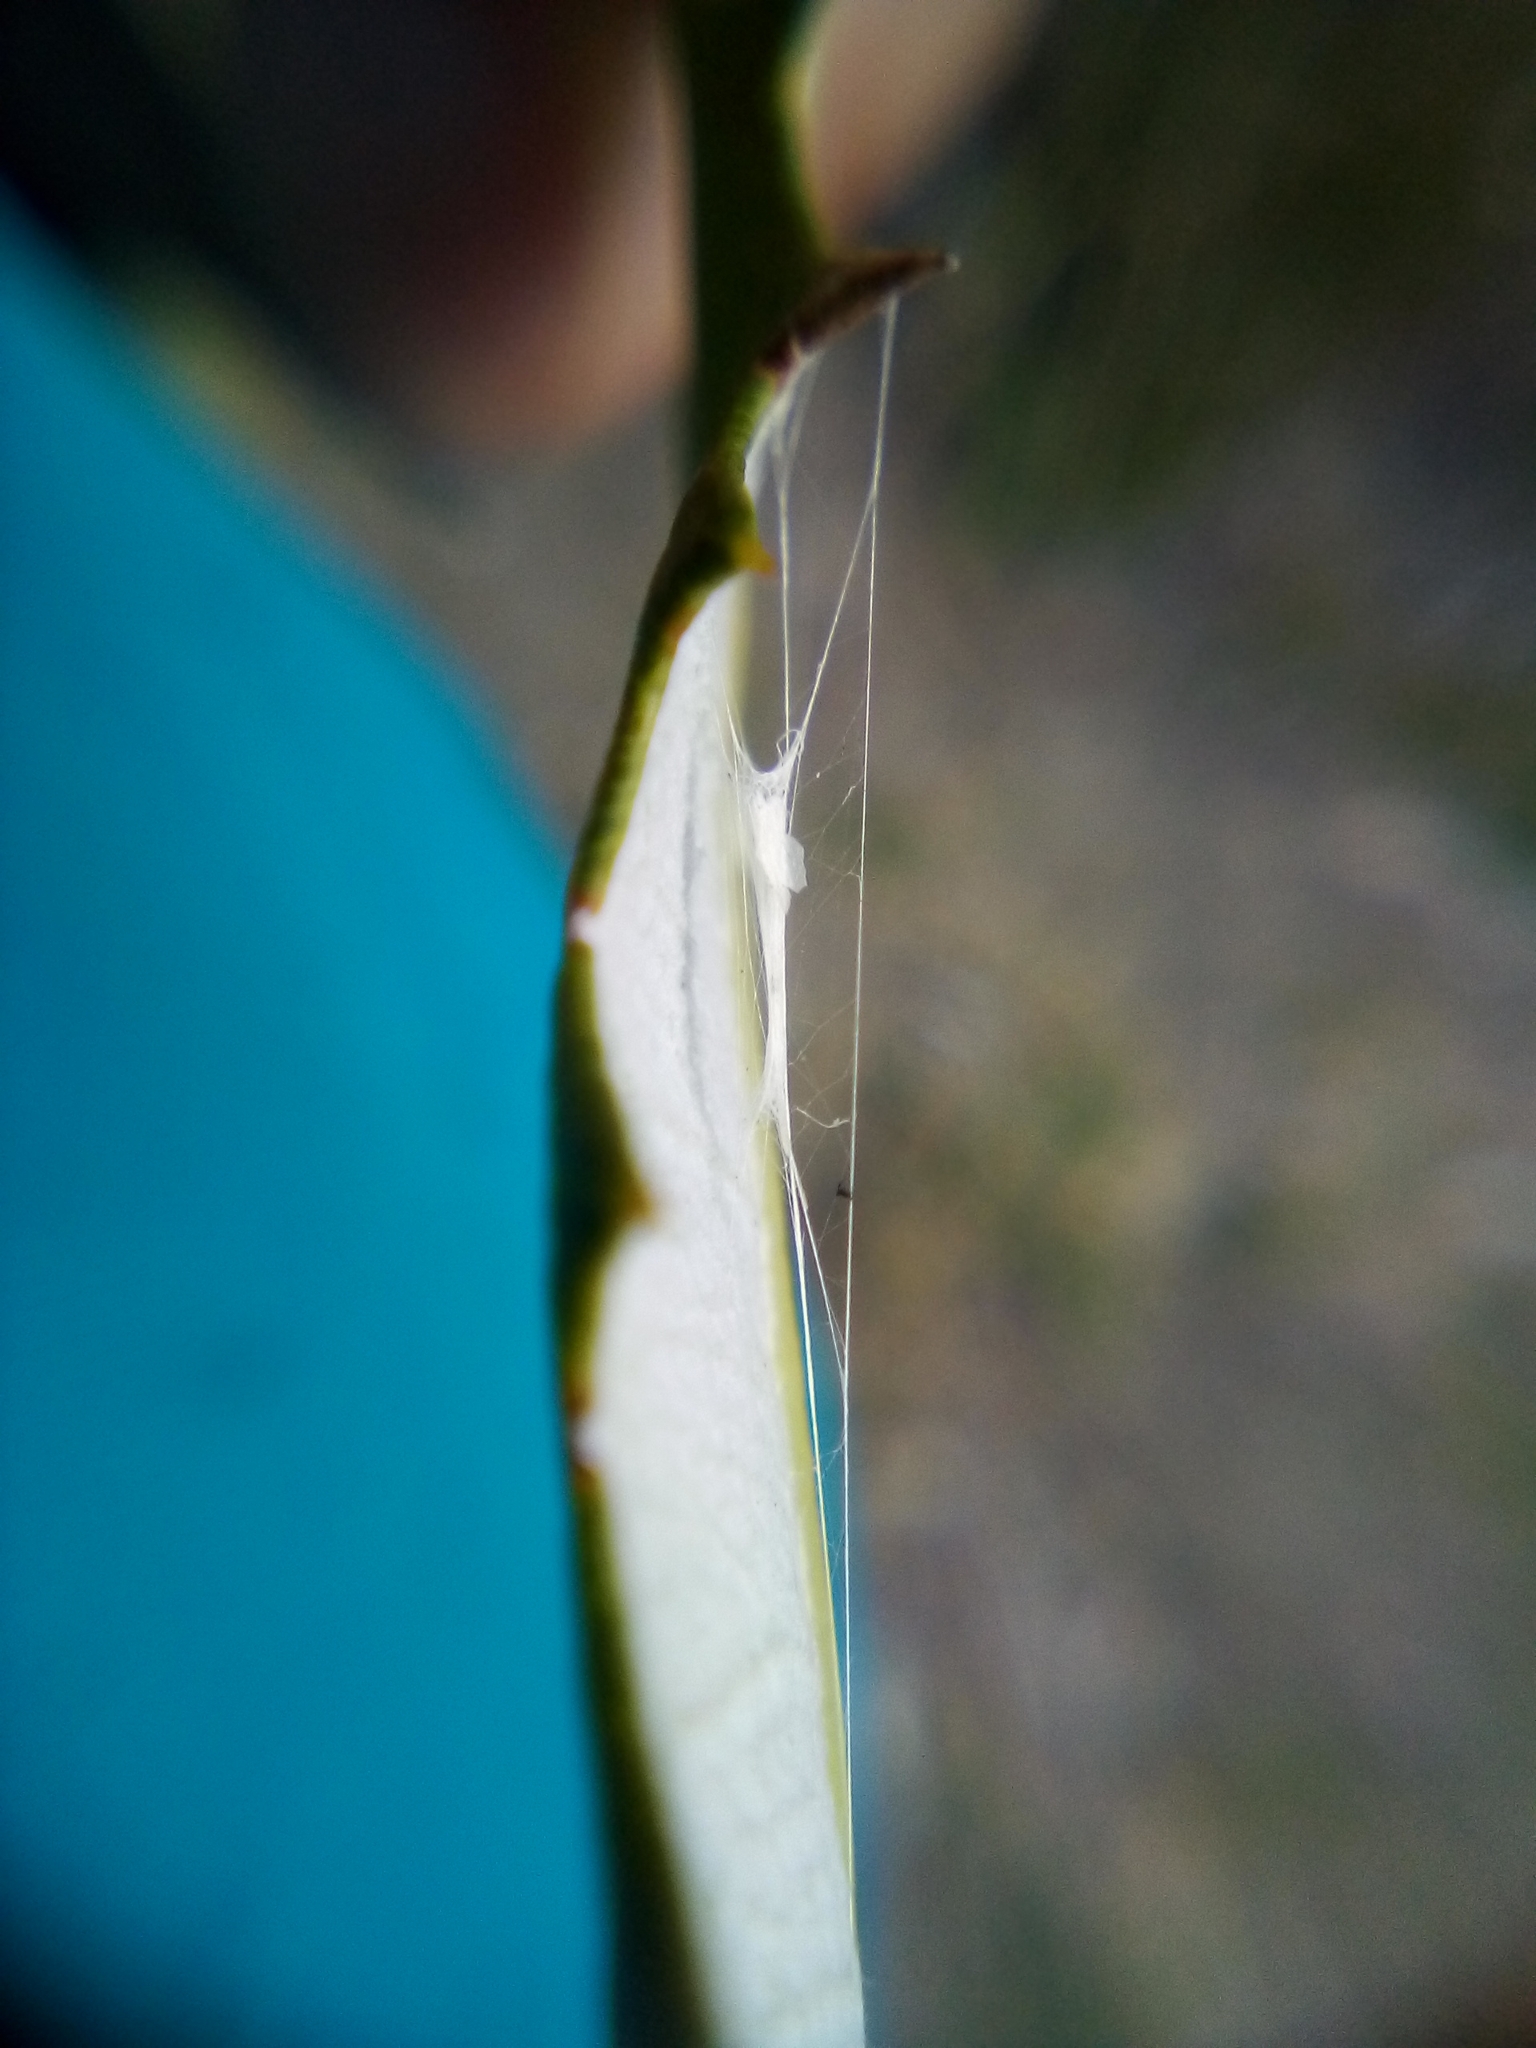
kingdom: Animalia
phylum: Arthropoda
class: Insecta
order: Lepidoptera
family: Lyonetiidae
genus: Stegommata
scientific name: Stegommata sulfuratella
